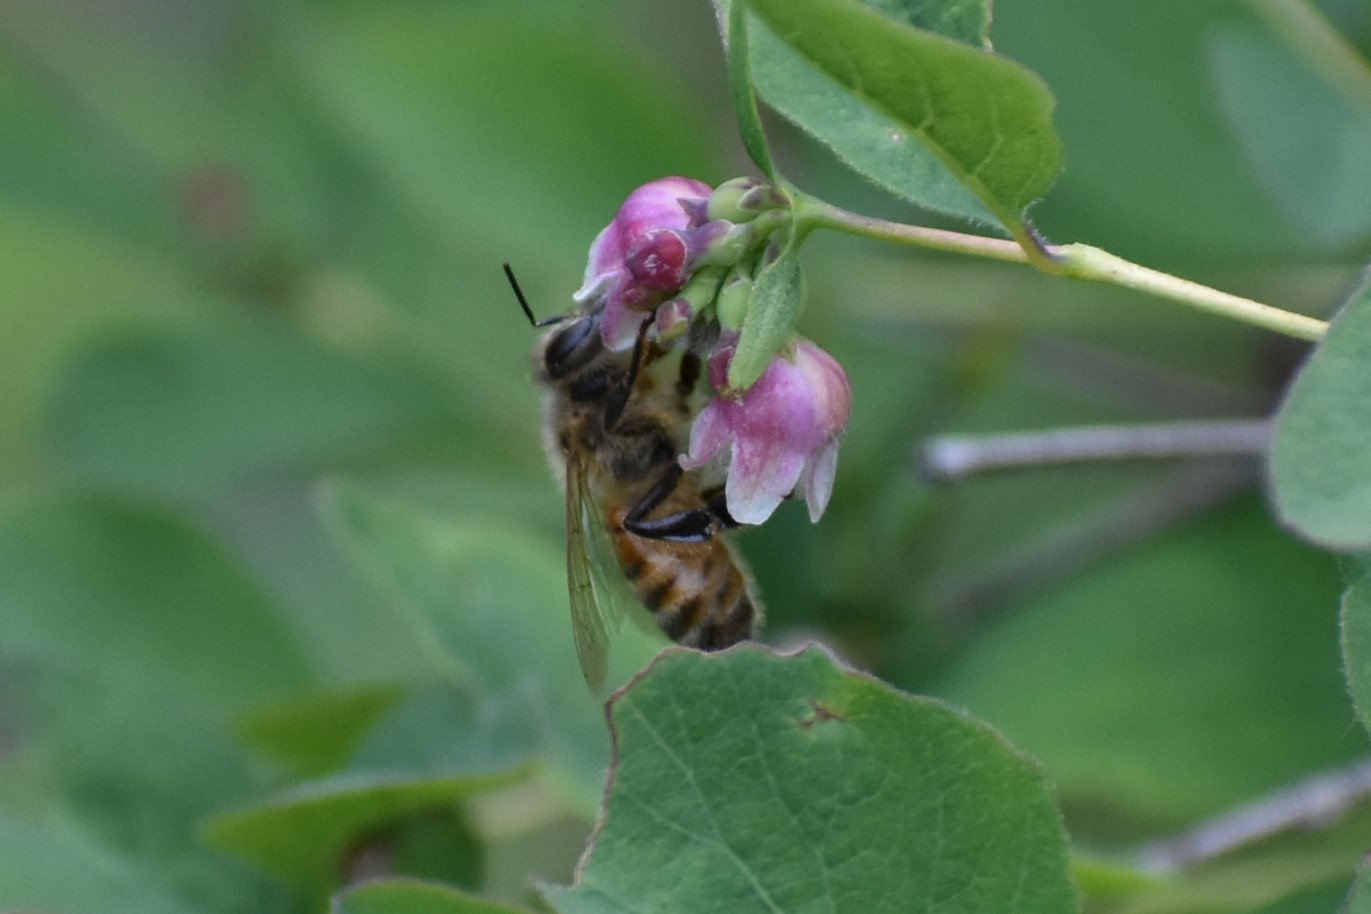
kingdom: Animalia
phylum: Arthropoda
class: Insecta
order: Hymenoptera
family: Apidae
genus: Apis
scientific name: Apis mellifera
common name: Honey bee
